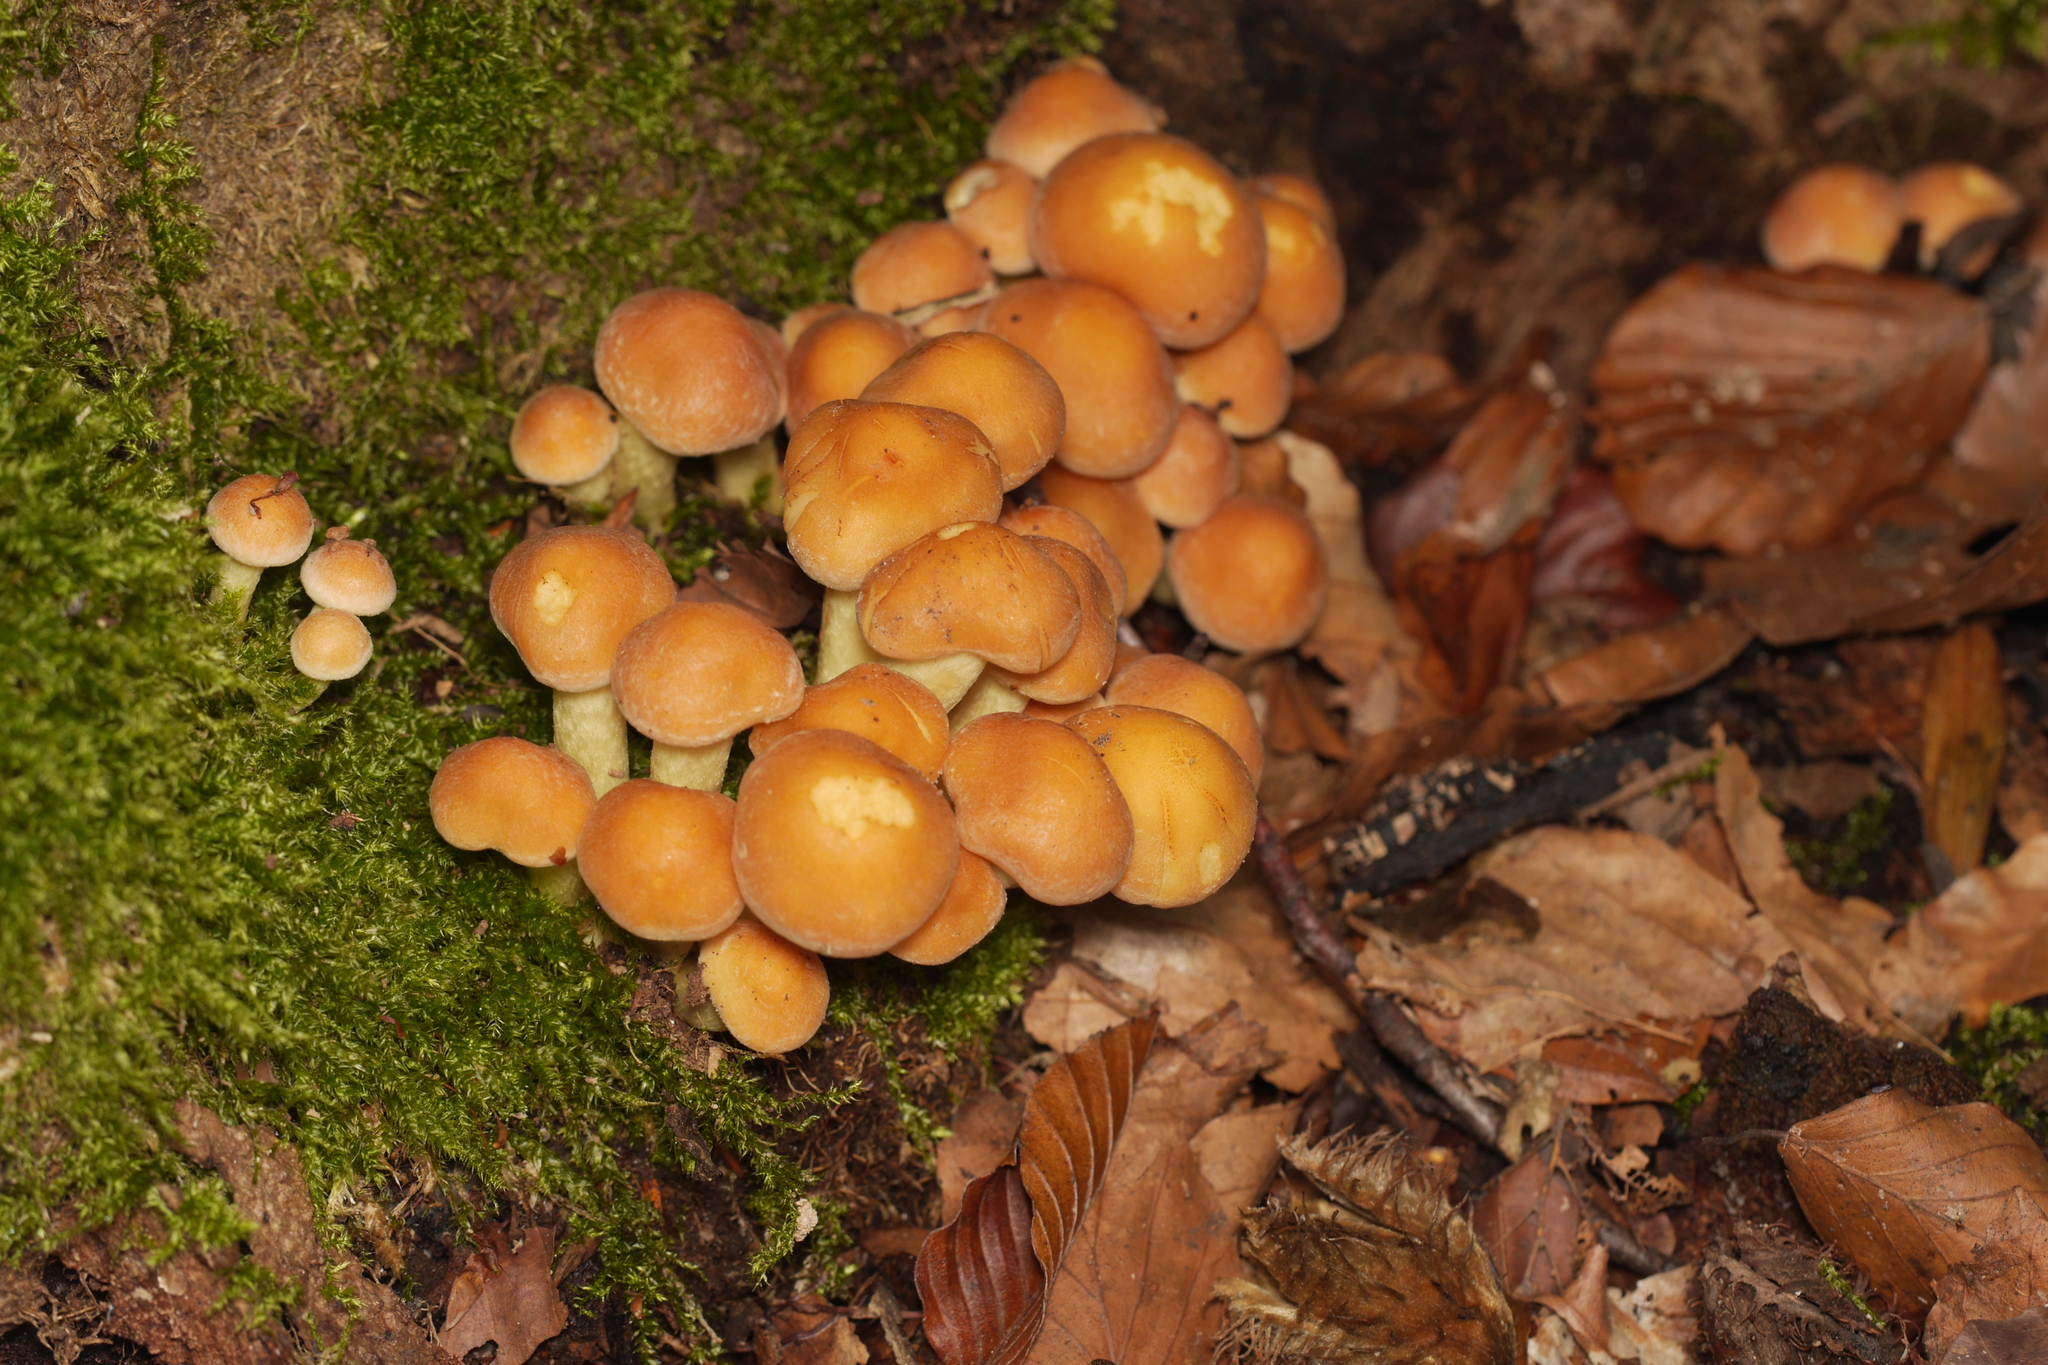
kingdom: Fungi
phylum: Basidiomycota
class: Agaricomycetes
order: Agaricales
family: Strophariaceae
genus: Hypholoma
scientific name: Hypholoma fasciculare
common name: Sulphur tuft
